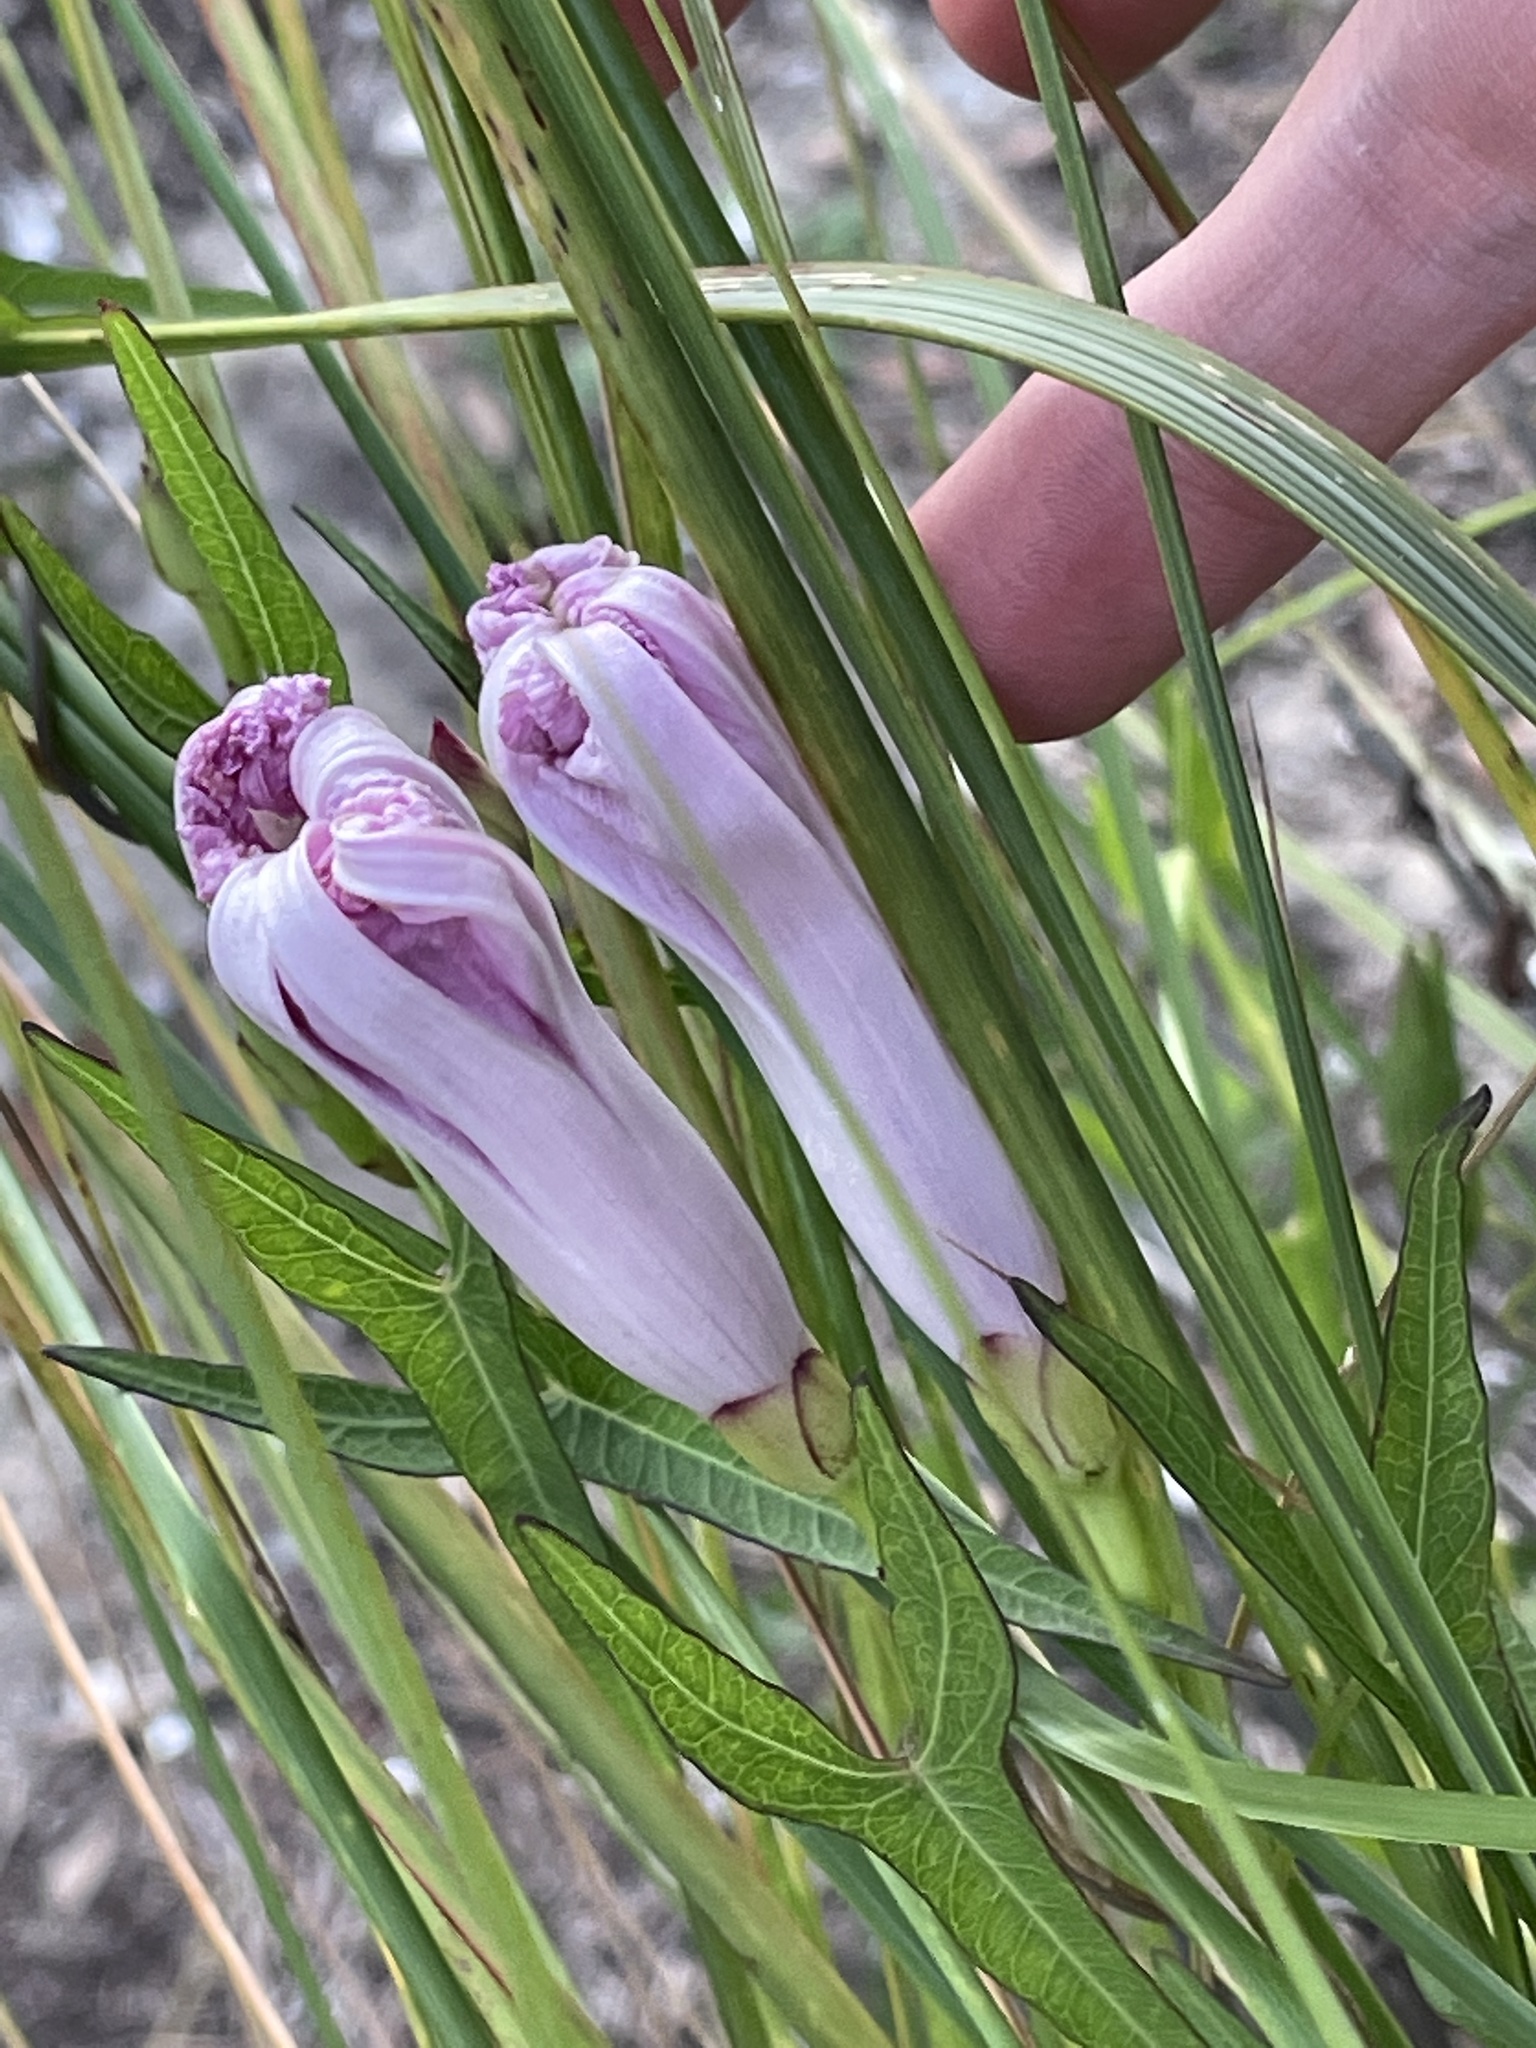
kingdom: Plantae
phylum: Tracheophyta
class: Magnoliopsida
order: Solanales
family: Convolvulaceae
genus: Ipomoea
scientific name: Ipomoea sagittata
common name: Saltmarsh morning glory
